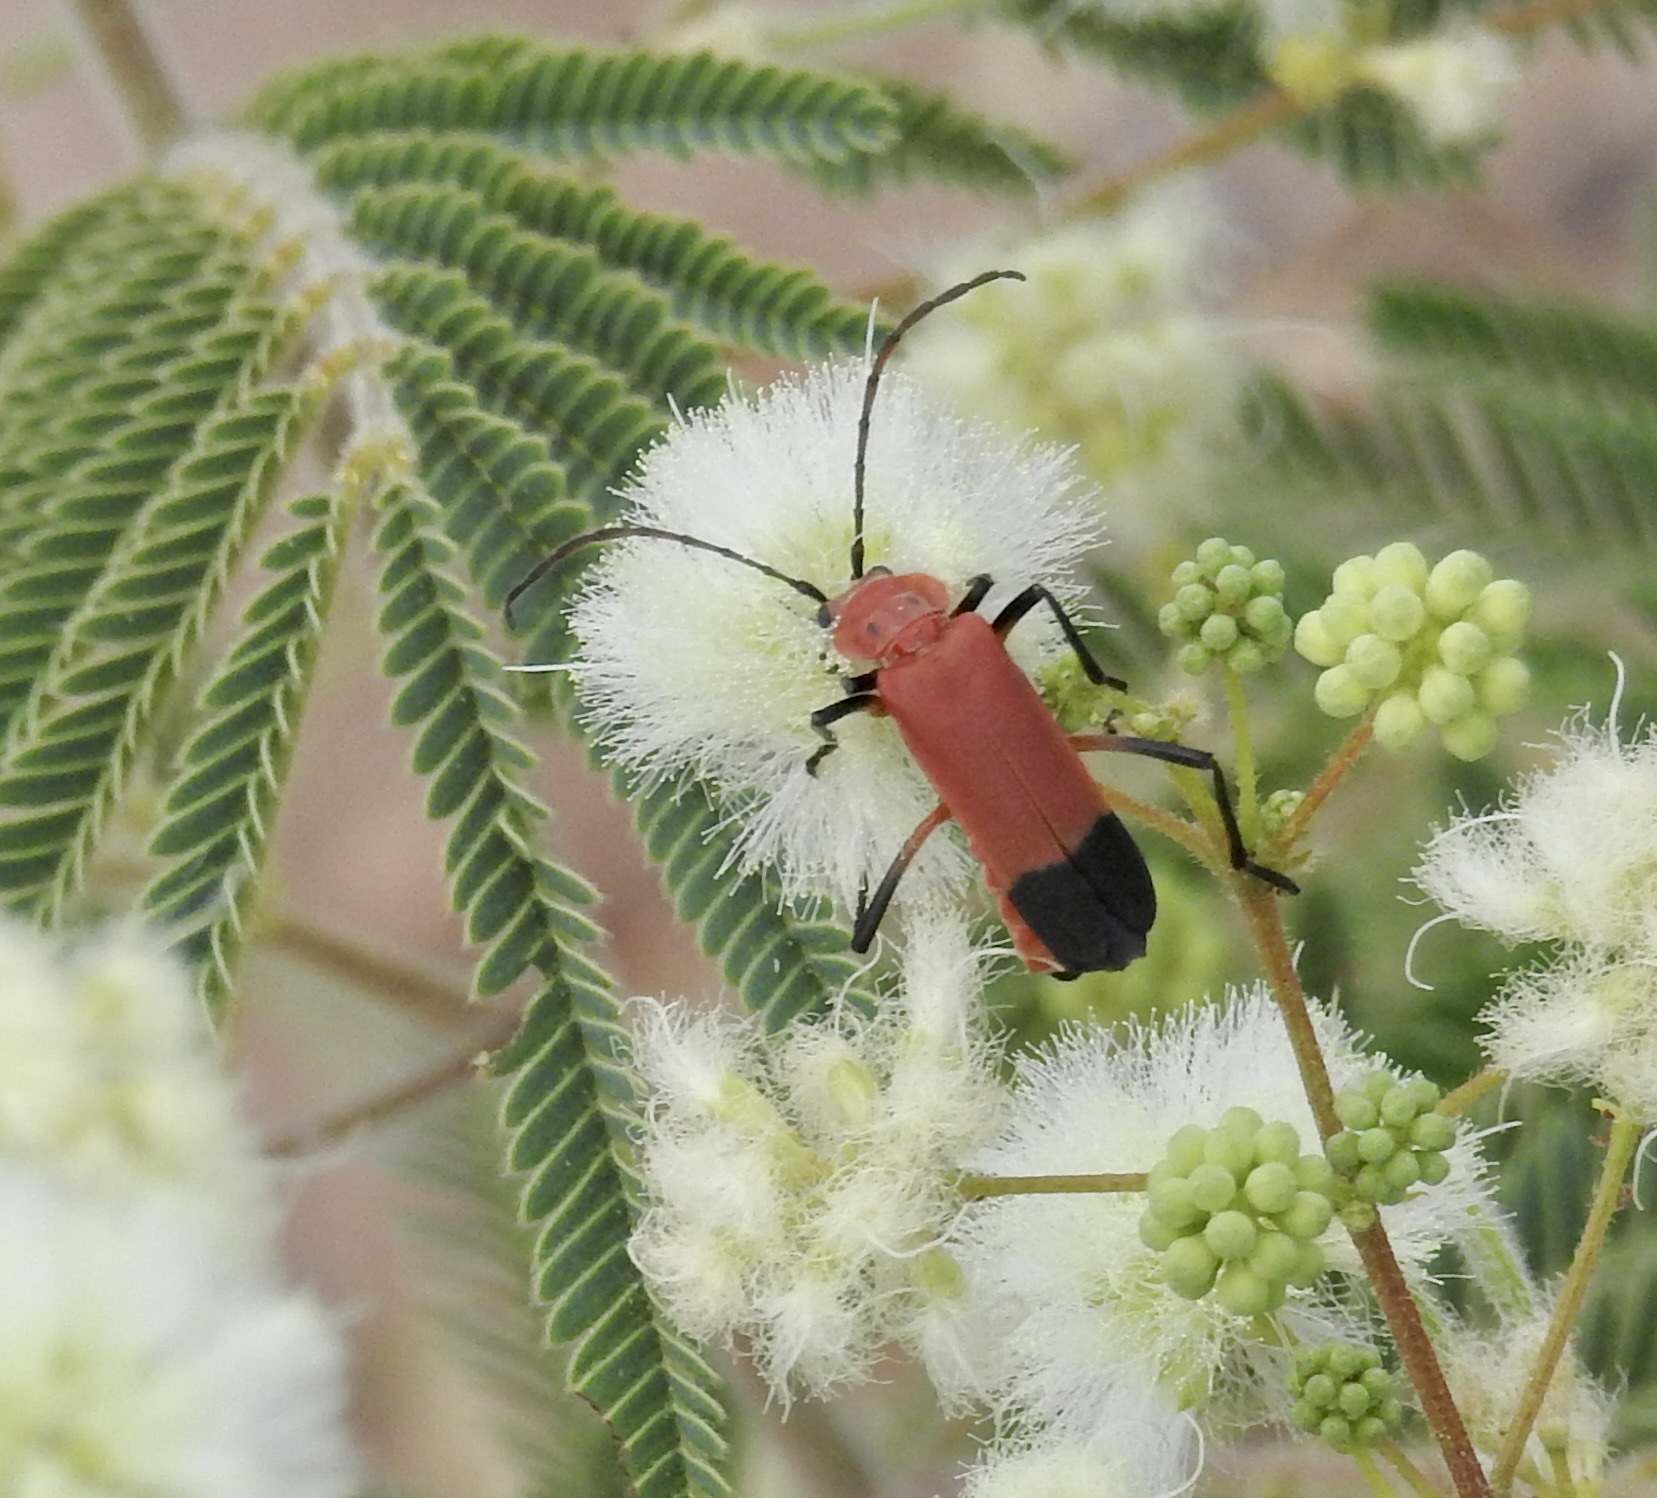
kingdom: Animalia
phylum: Arthropoda
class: Insecta
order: Coleoptera
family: Cantharidae
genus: Chauliognathus
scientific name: Chauliognathus lecontei
